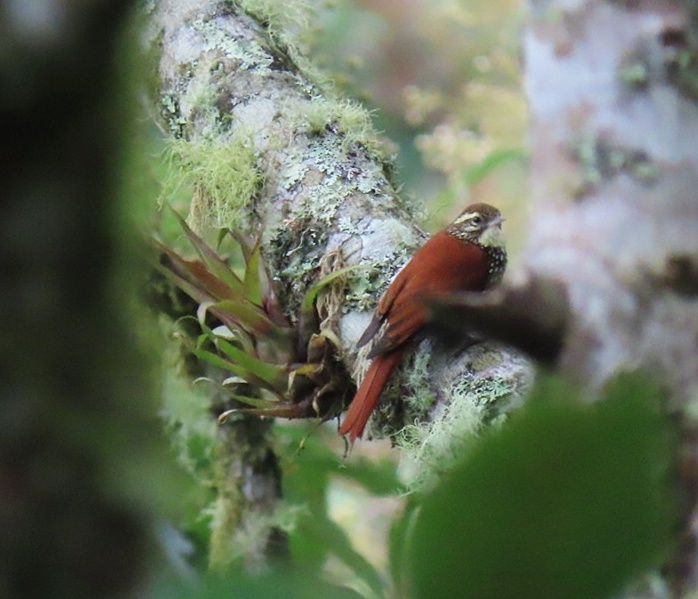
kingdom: Animalia
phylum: Chordata
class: Aves
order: Passeriformes
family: Furnariidae
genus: Margarornis
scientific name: Margarornis squamiger
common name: Pearled treerunner
